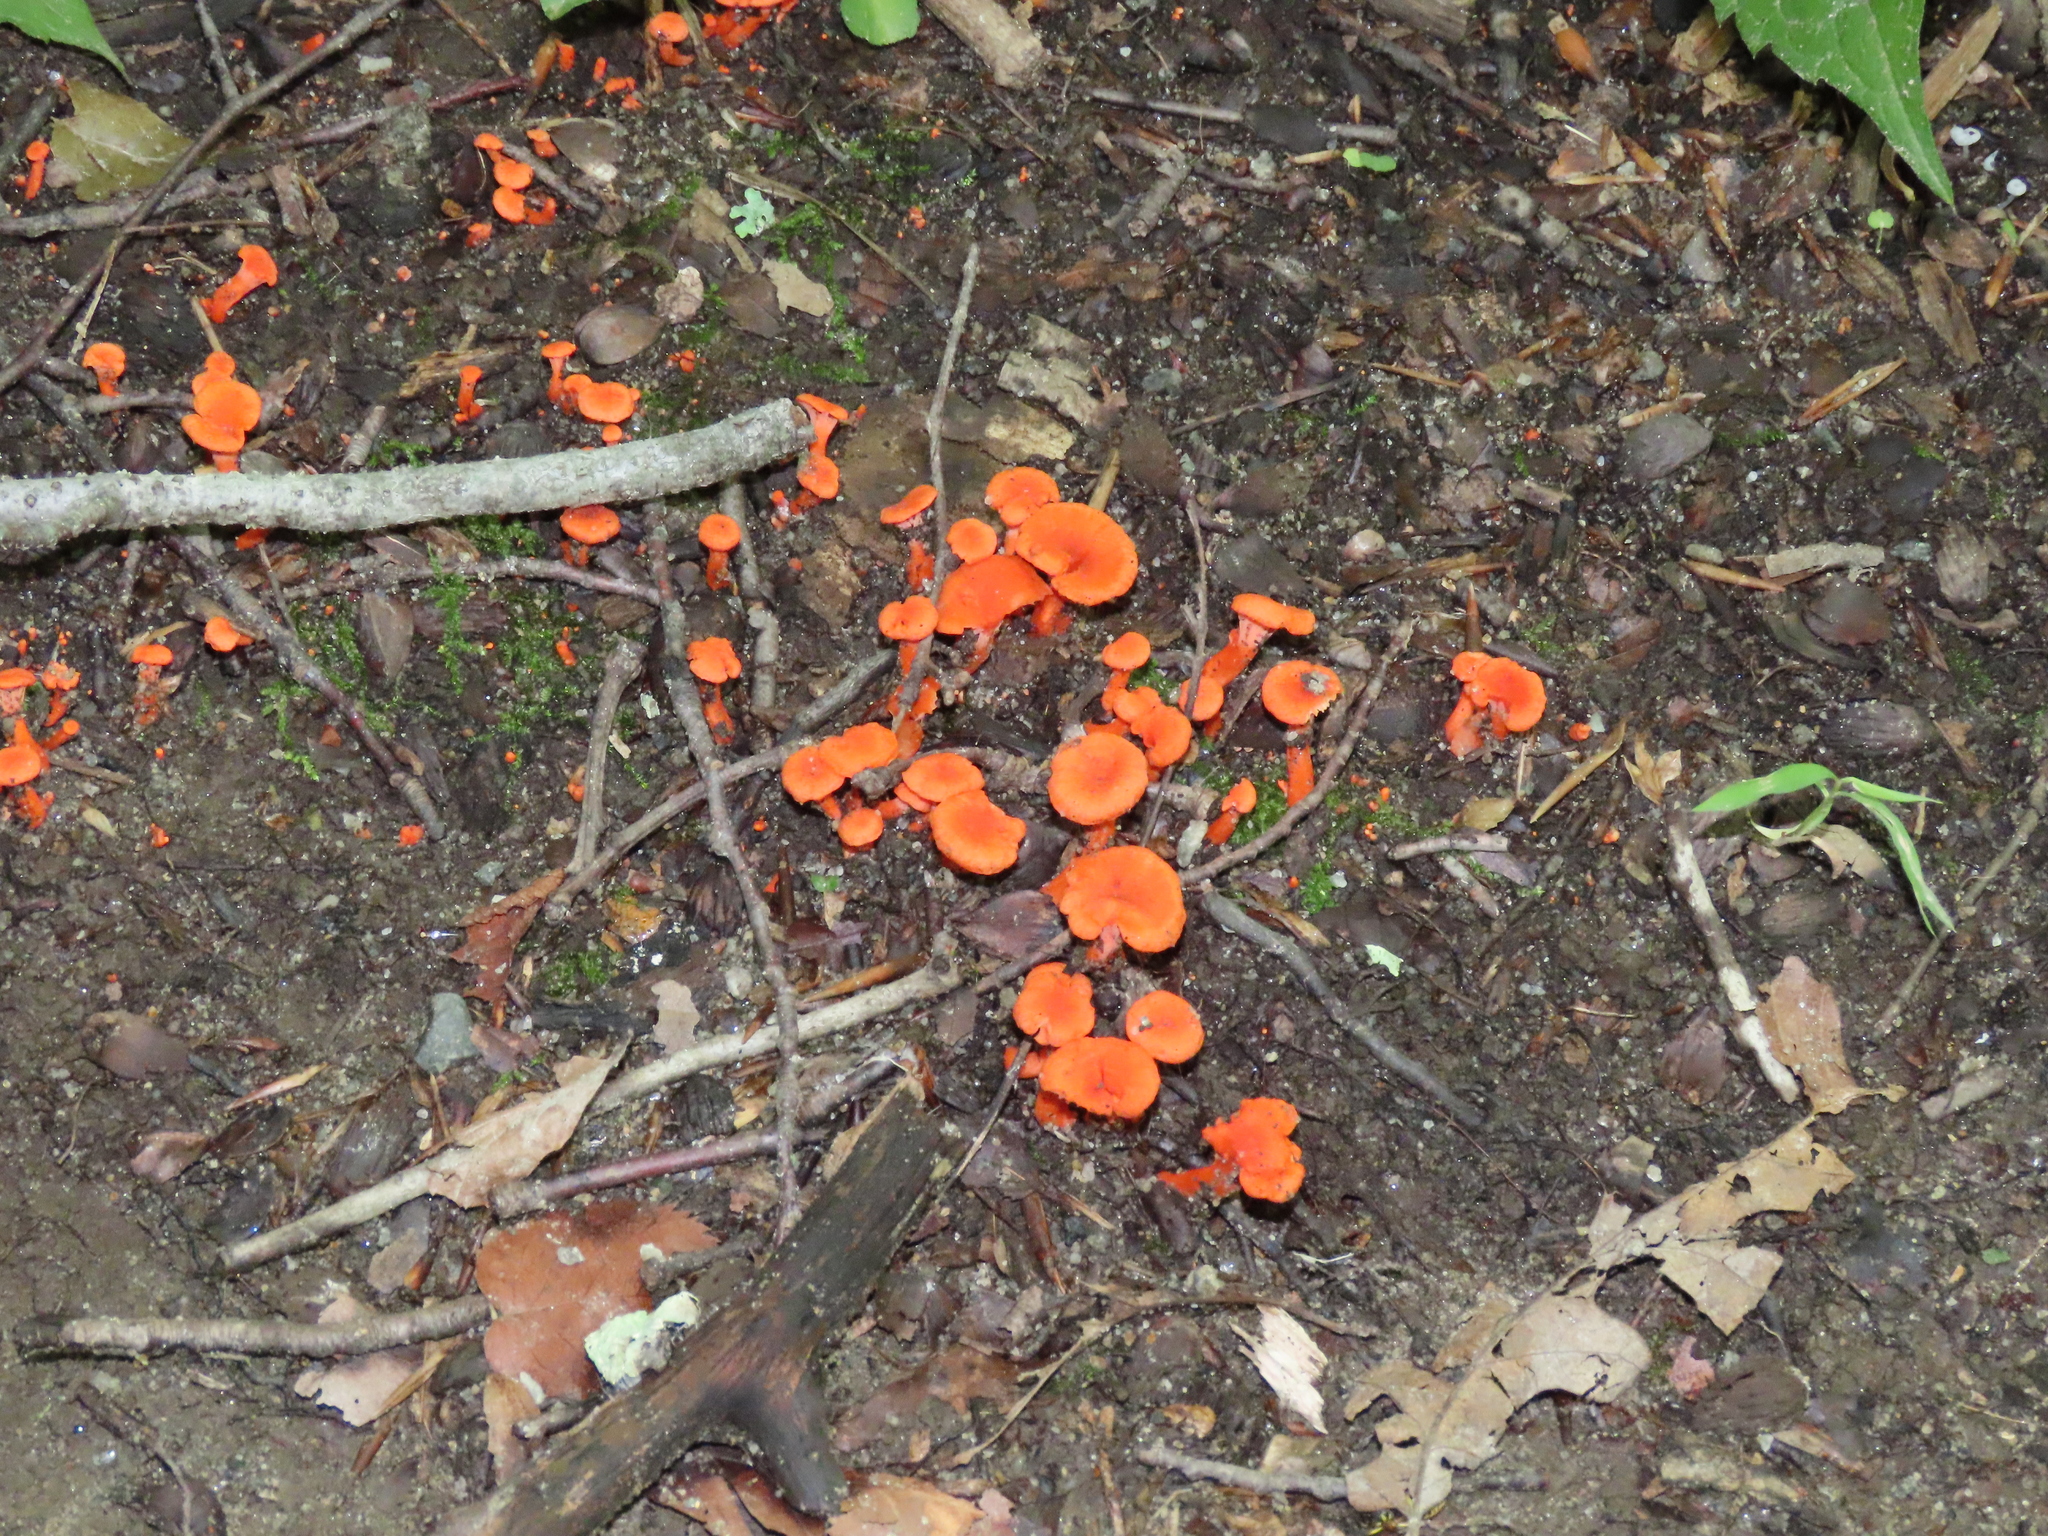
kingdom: Fungi
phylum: Basidiomycota
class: Agaricomycetes
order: Cantharellales
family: Hydnaceae
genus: Cantharellus
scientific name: Cantharellus cinnabarinus
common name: Cinnabar chanterelle
